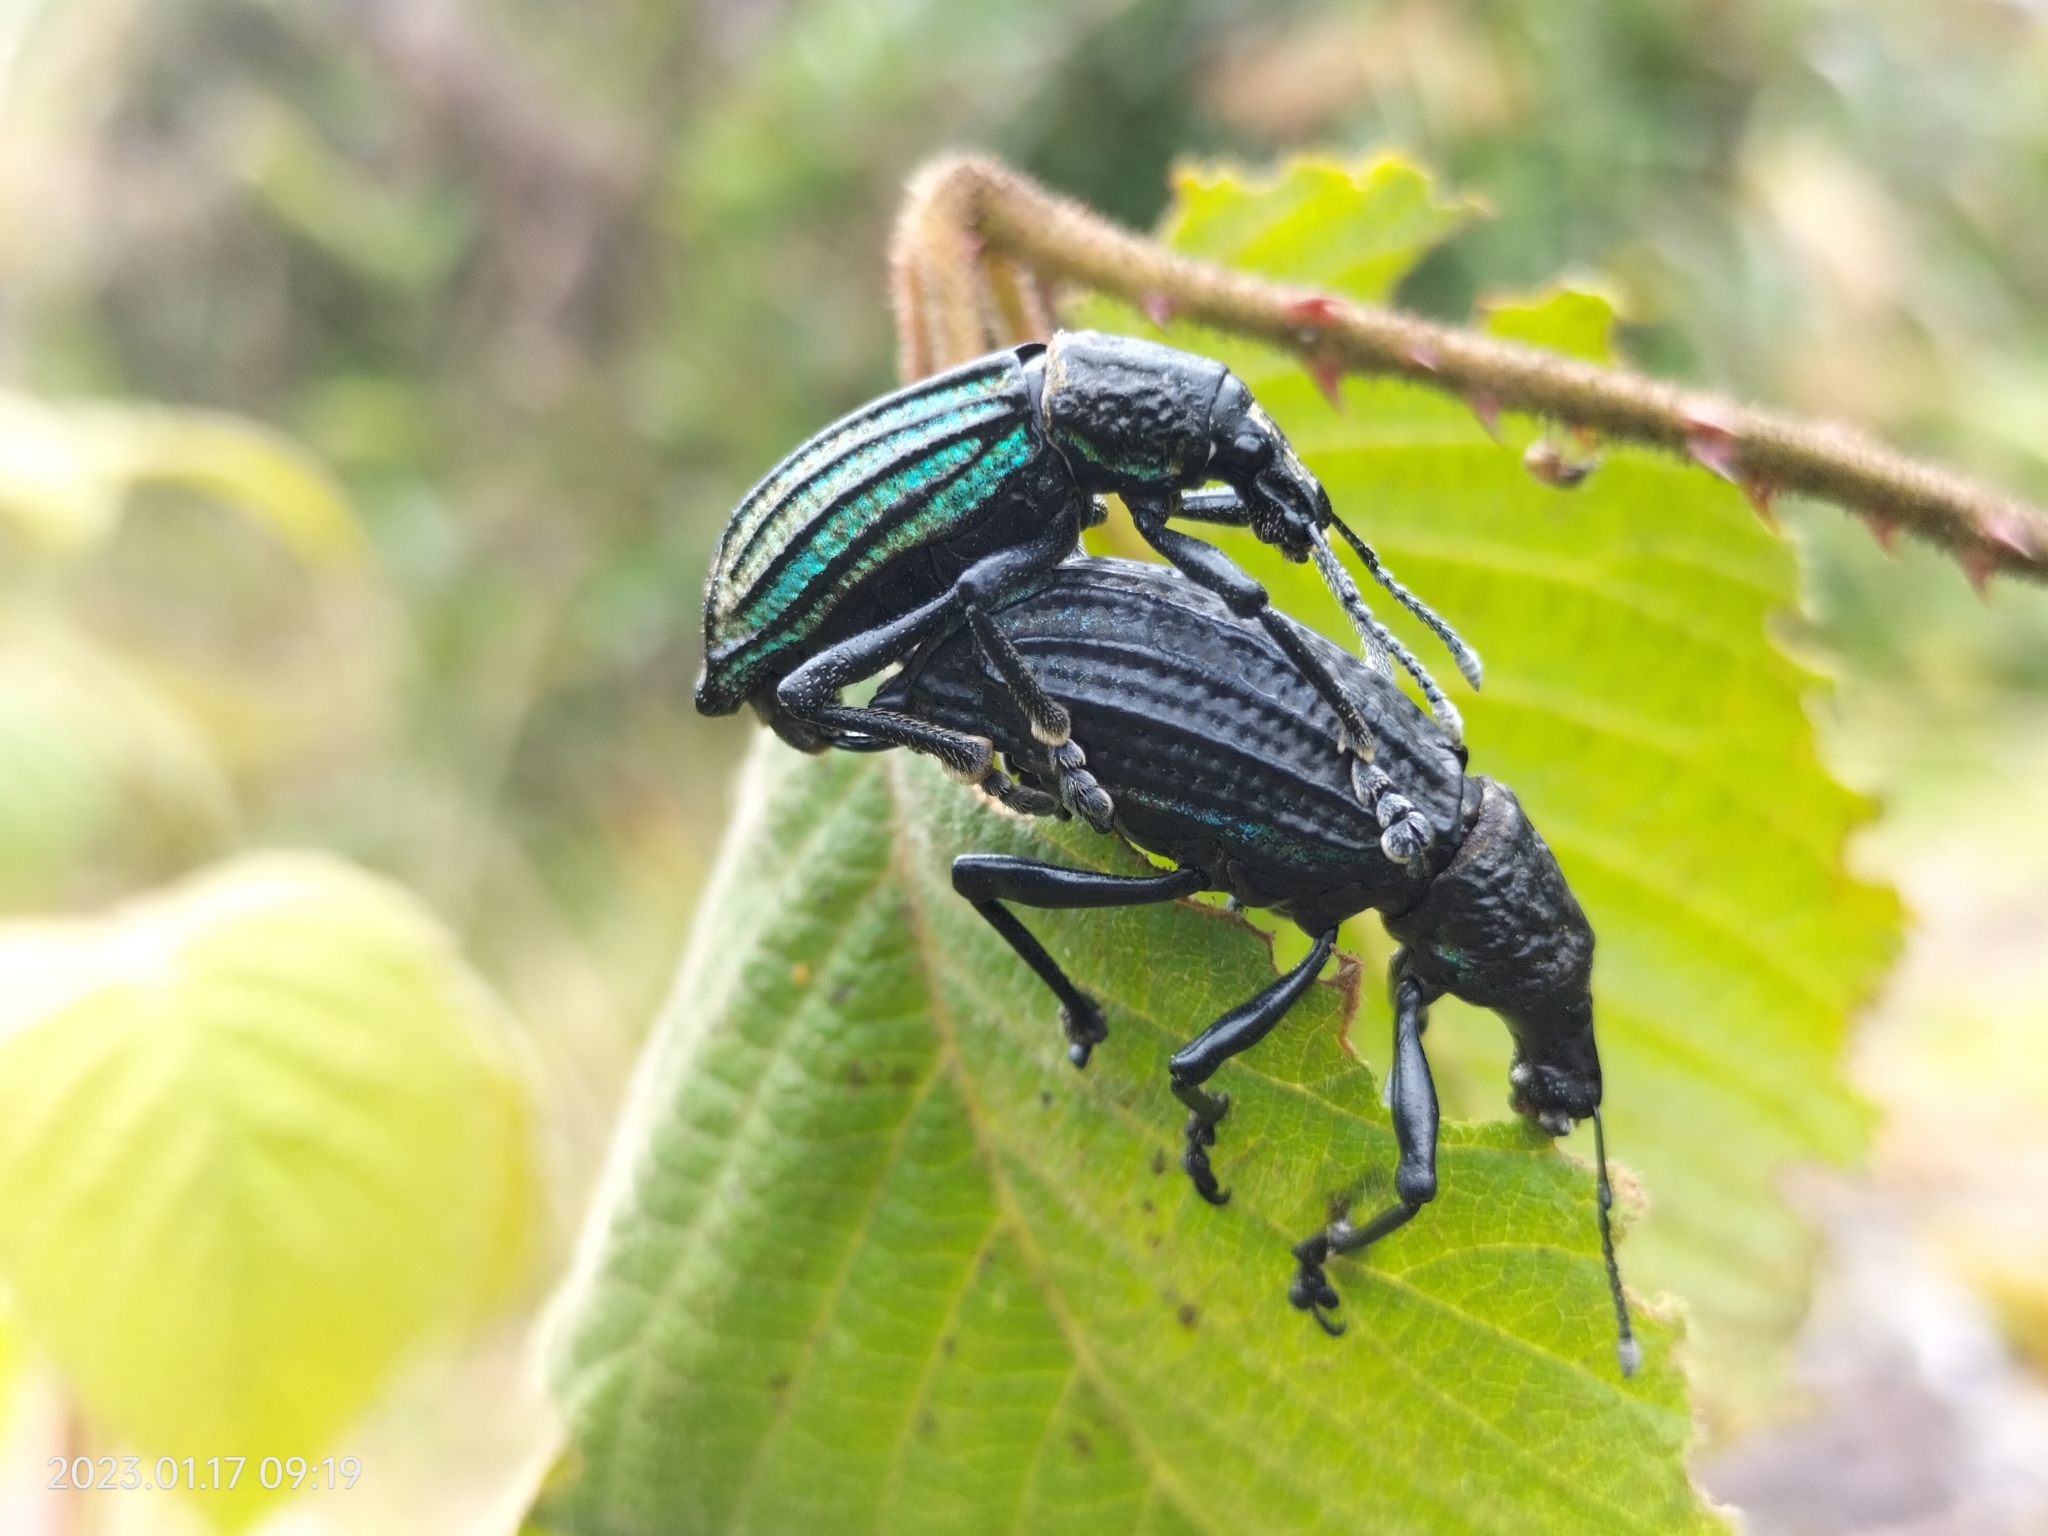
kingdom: Animalia
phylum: Arthropoda
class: Insecta
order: Coleoptera
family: Curculionidae
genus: Exorides
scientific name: Exorides octocostatus
